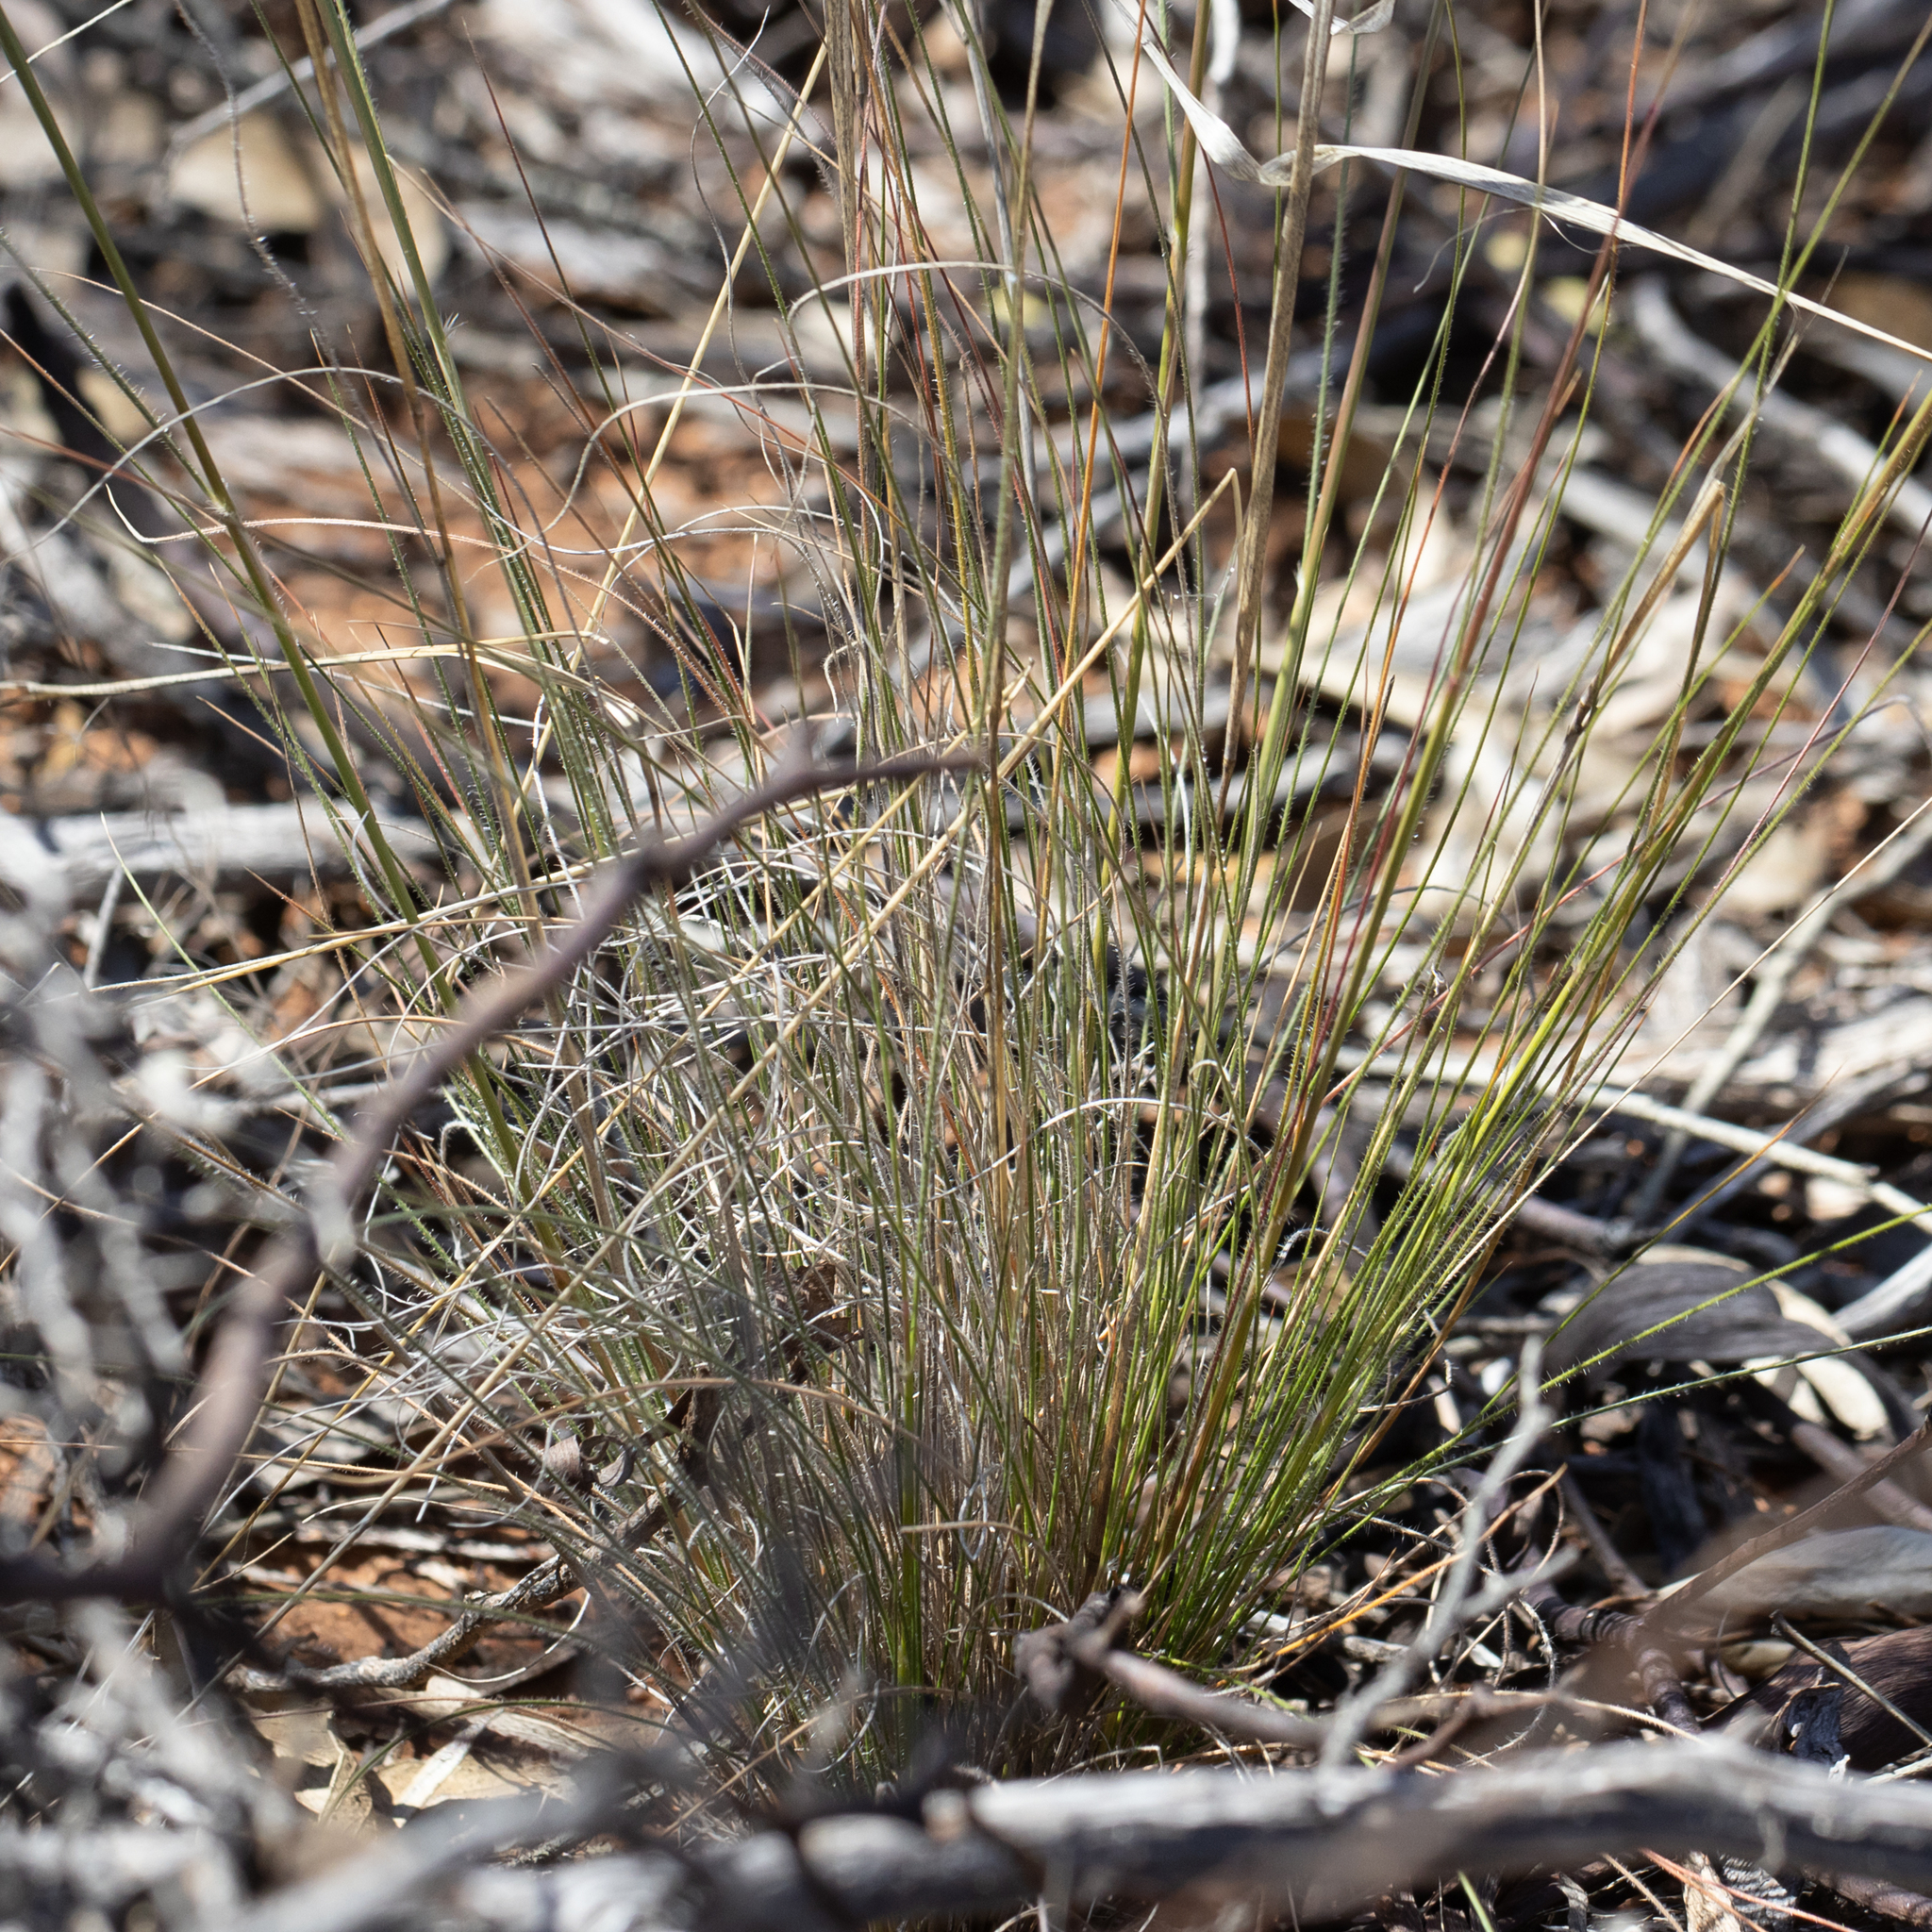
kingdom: Plantae
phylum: Tracheophyta
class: Liliopsida
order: Poales
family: Poaceae
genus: Austrostipa
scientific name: Austrostipa trichophylla
